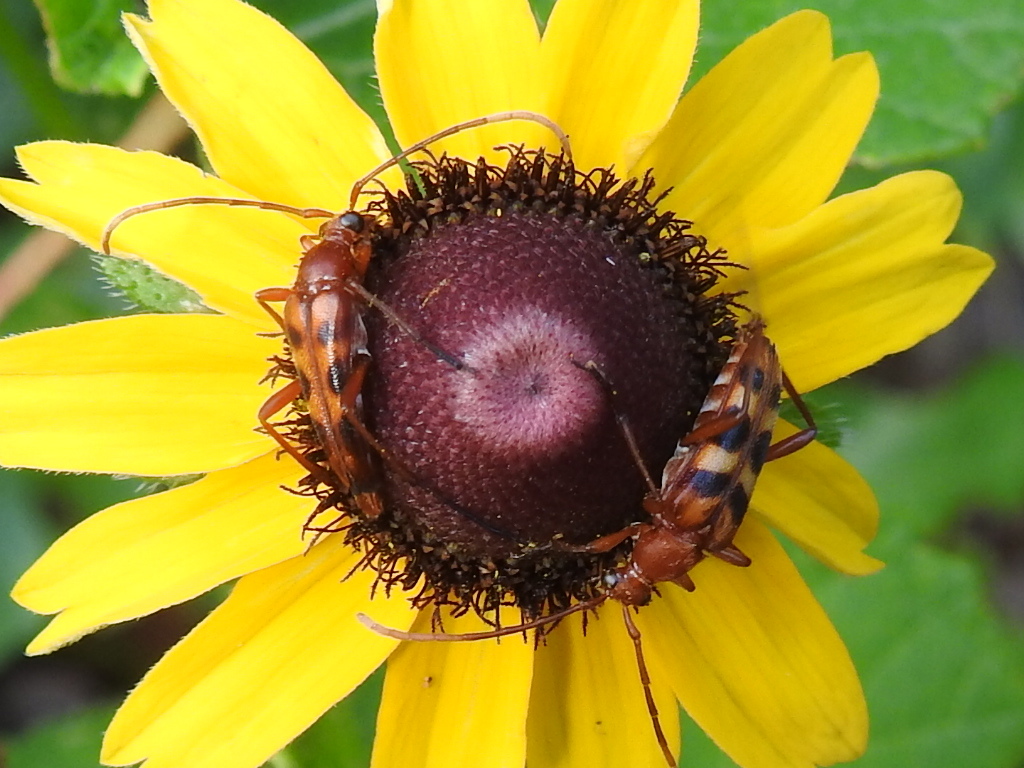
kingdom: Animalia
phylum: Arthropoda
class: Insecta
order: Coleoptera
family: Cerambycidae
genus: Strangalia
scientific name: Strangalia sexnotata
